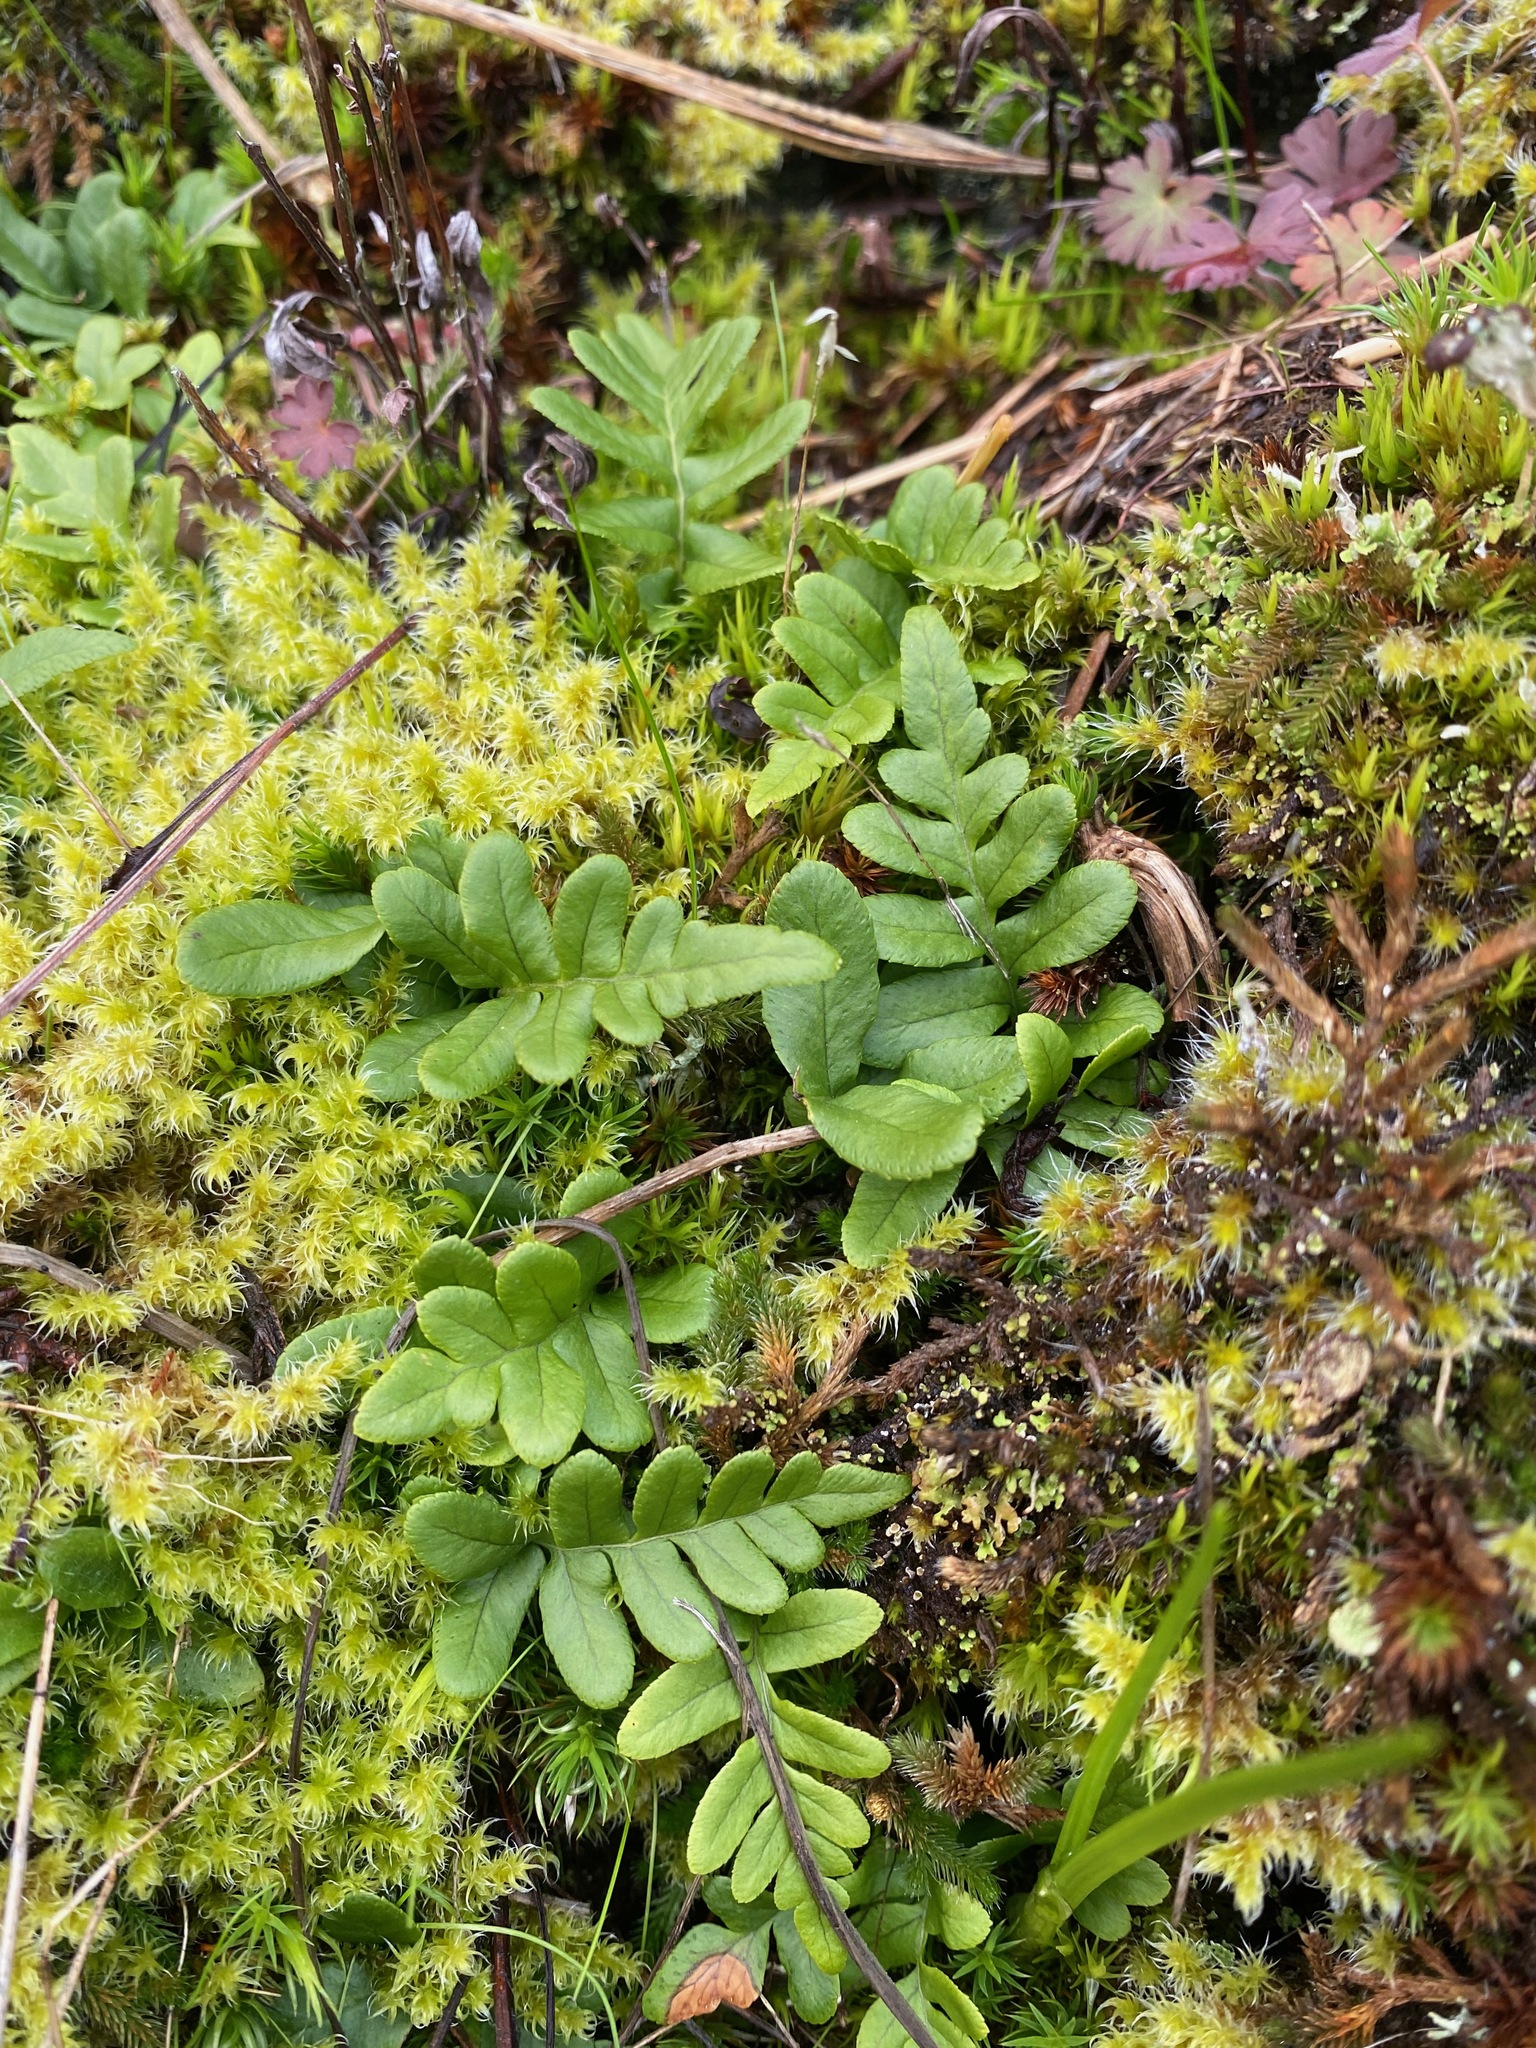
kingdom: Plantae
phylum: Tracheophyta
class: Polypodiopsida
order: Polypodiales
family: Polypodiaceae
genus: Polypodium
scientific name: Polypodium glycyrrhiza
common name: Licorice fern
